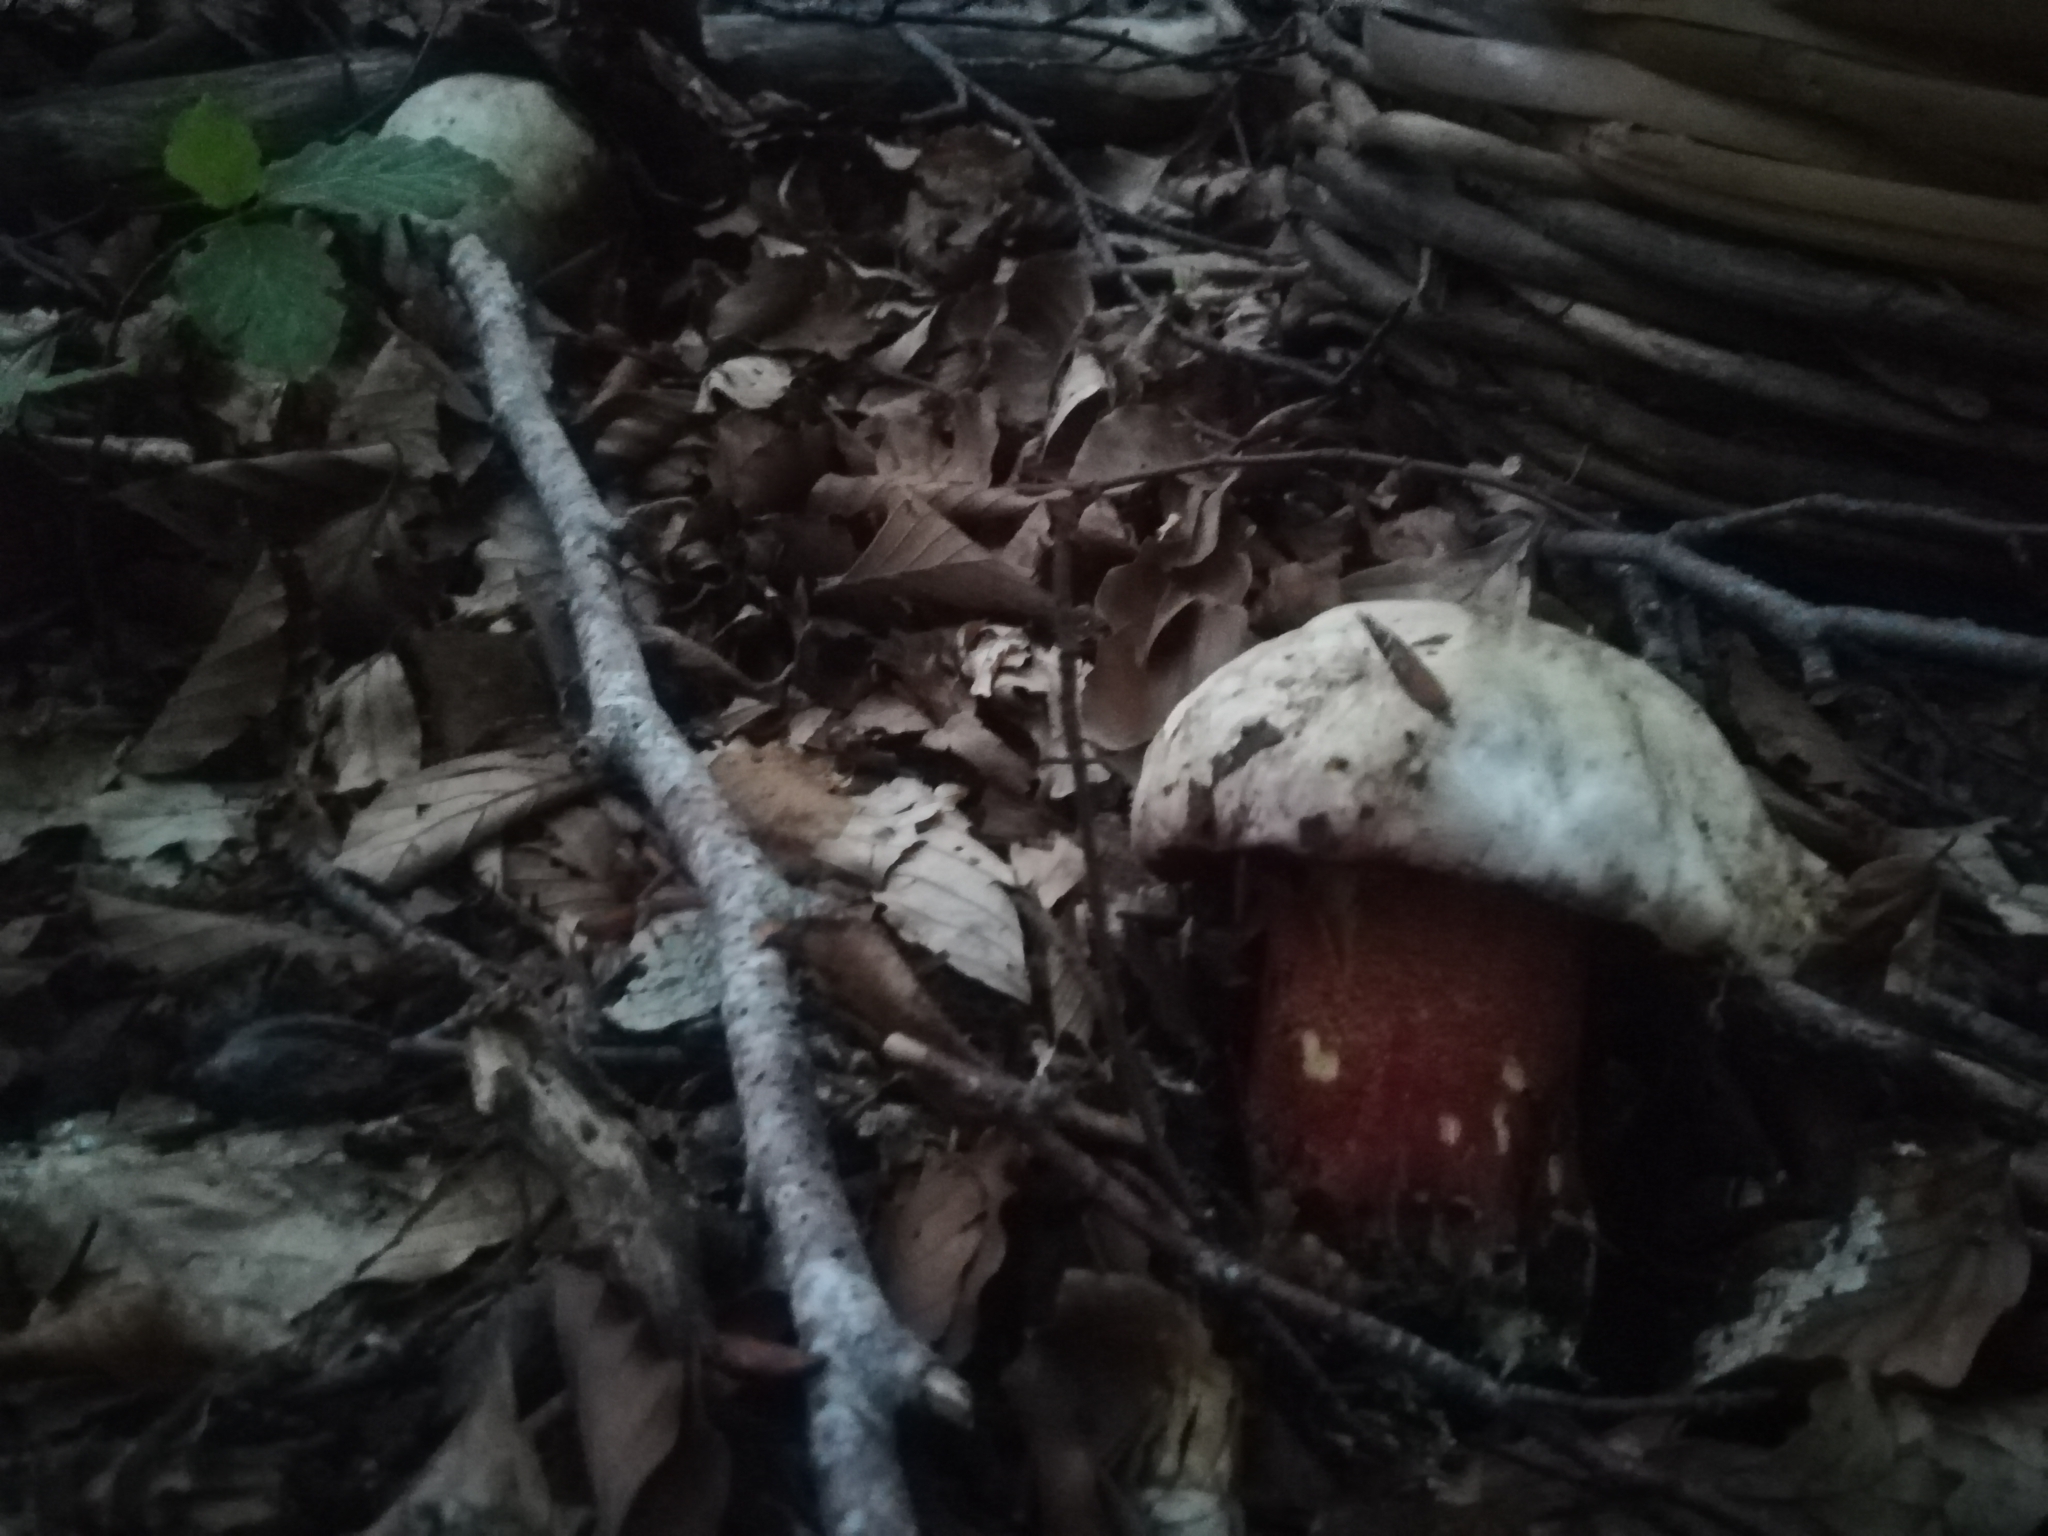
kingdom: Fungi
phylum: Basidiomycota
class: Agaricomycetes
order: Boletales
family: Boletaceae
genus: Rubroboletus
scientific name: Rubroboletus rhodoxanthus
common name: Ruddy bolete
